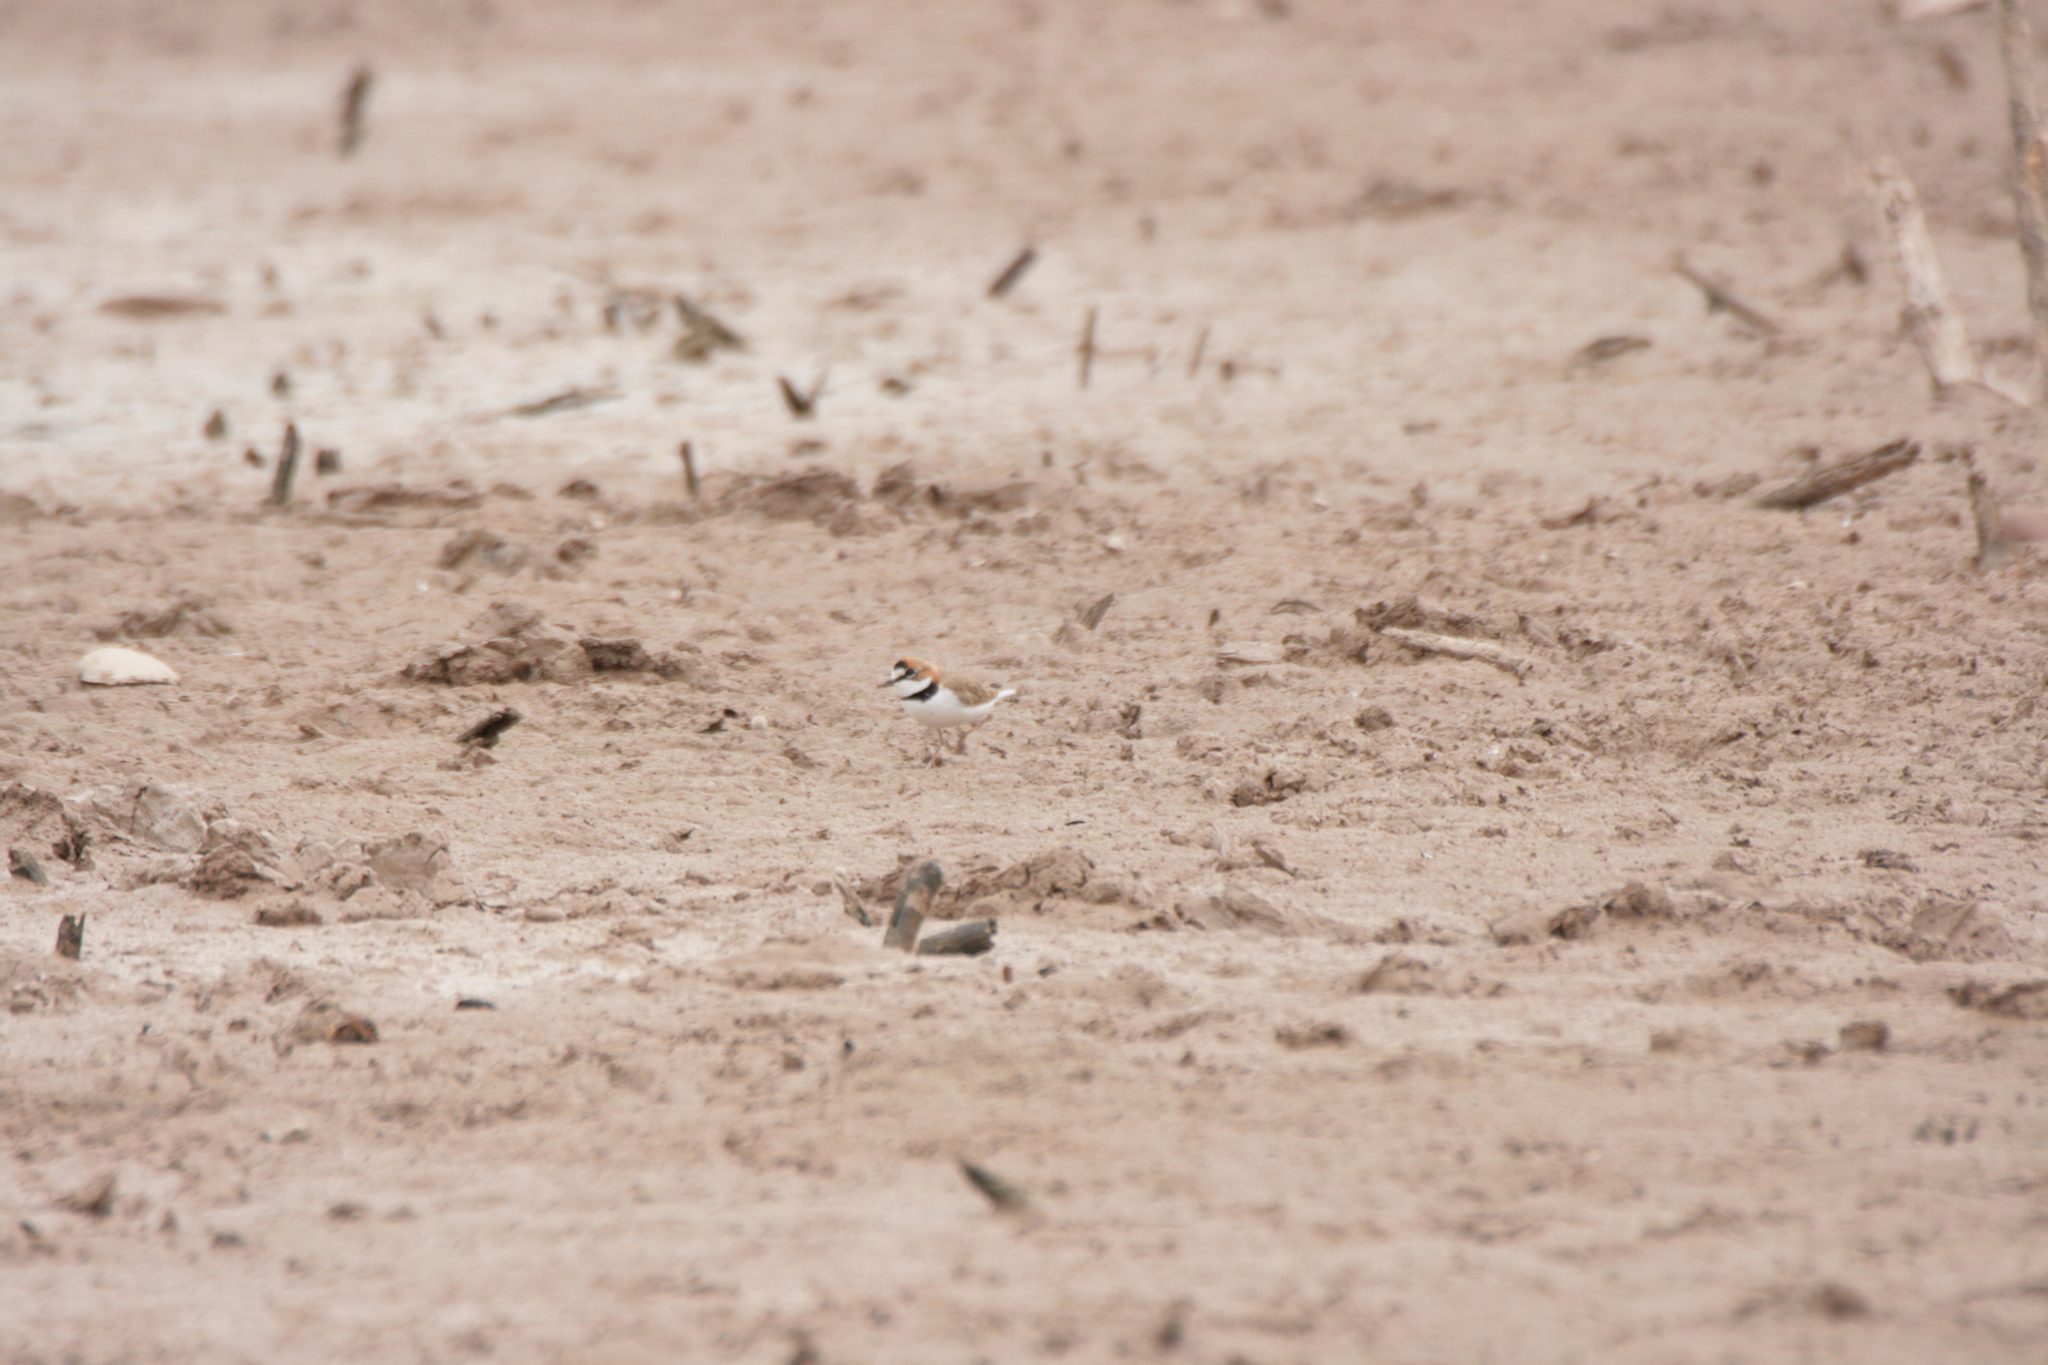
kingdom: Animalia
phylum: Chordata
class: Aves
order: Charadriiformes
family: Charadriidae
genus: Anarhynchus
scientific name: Anarhynchus
